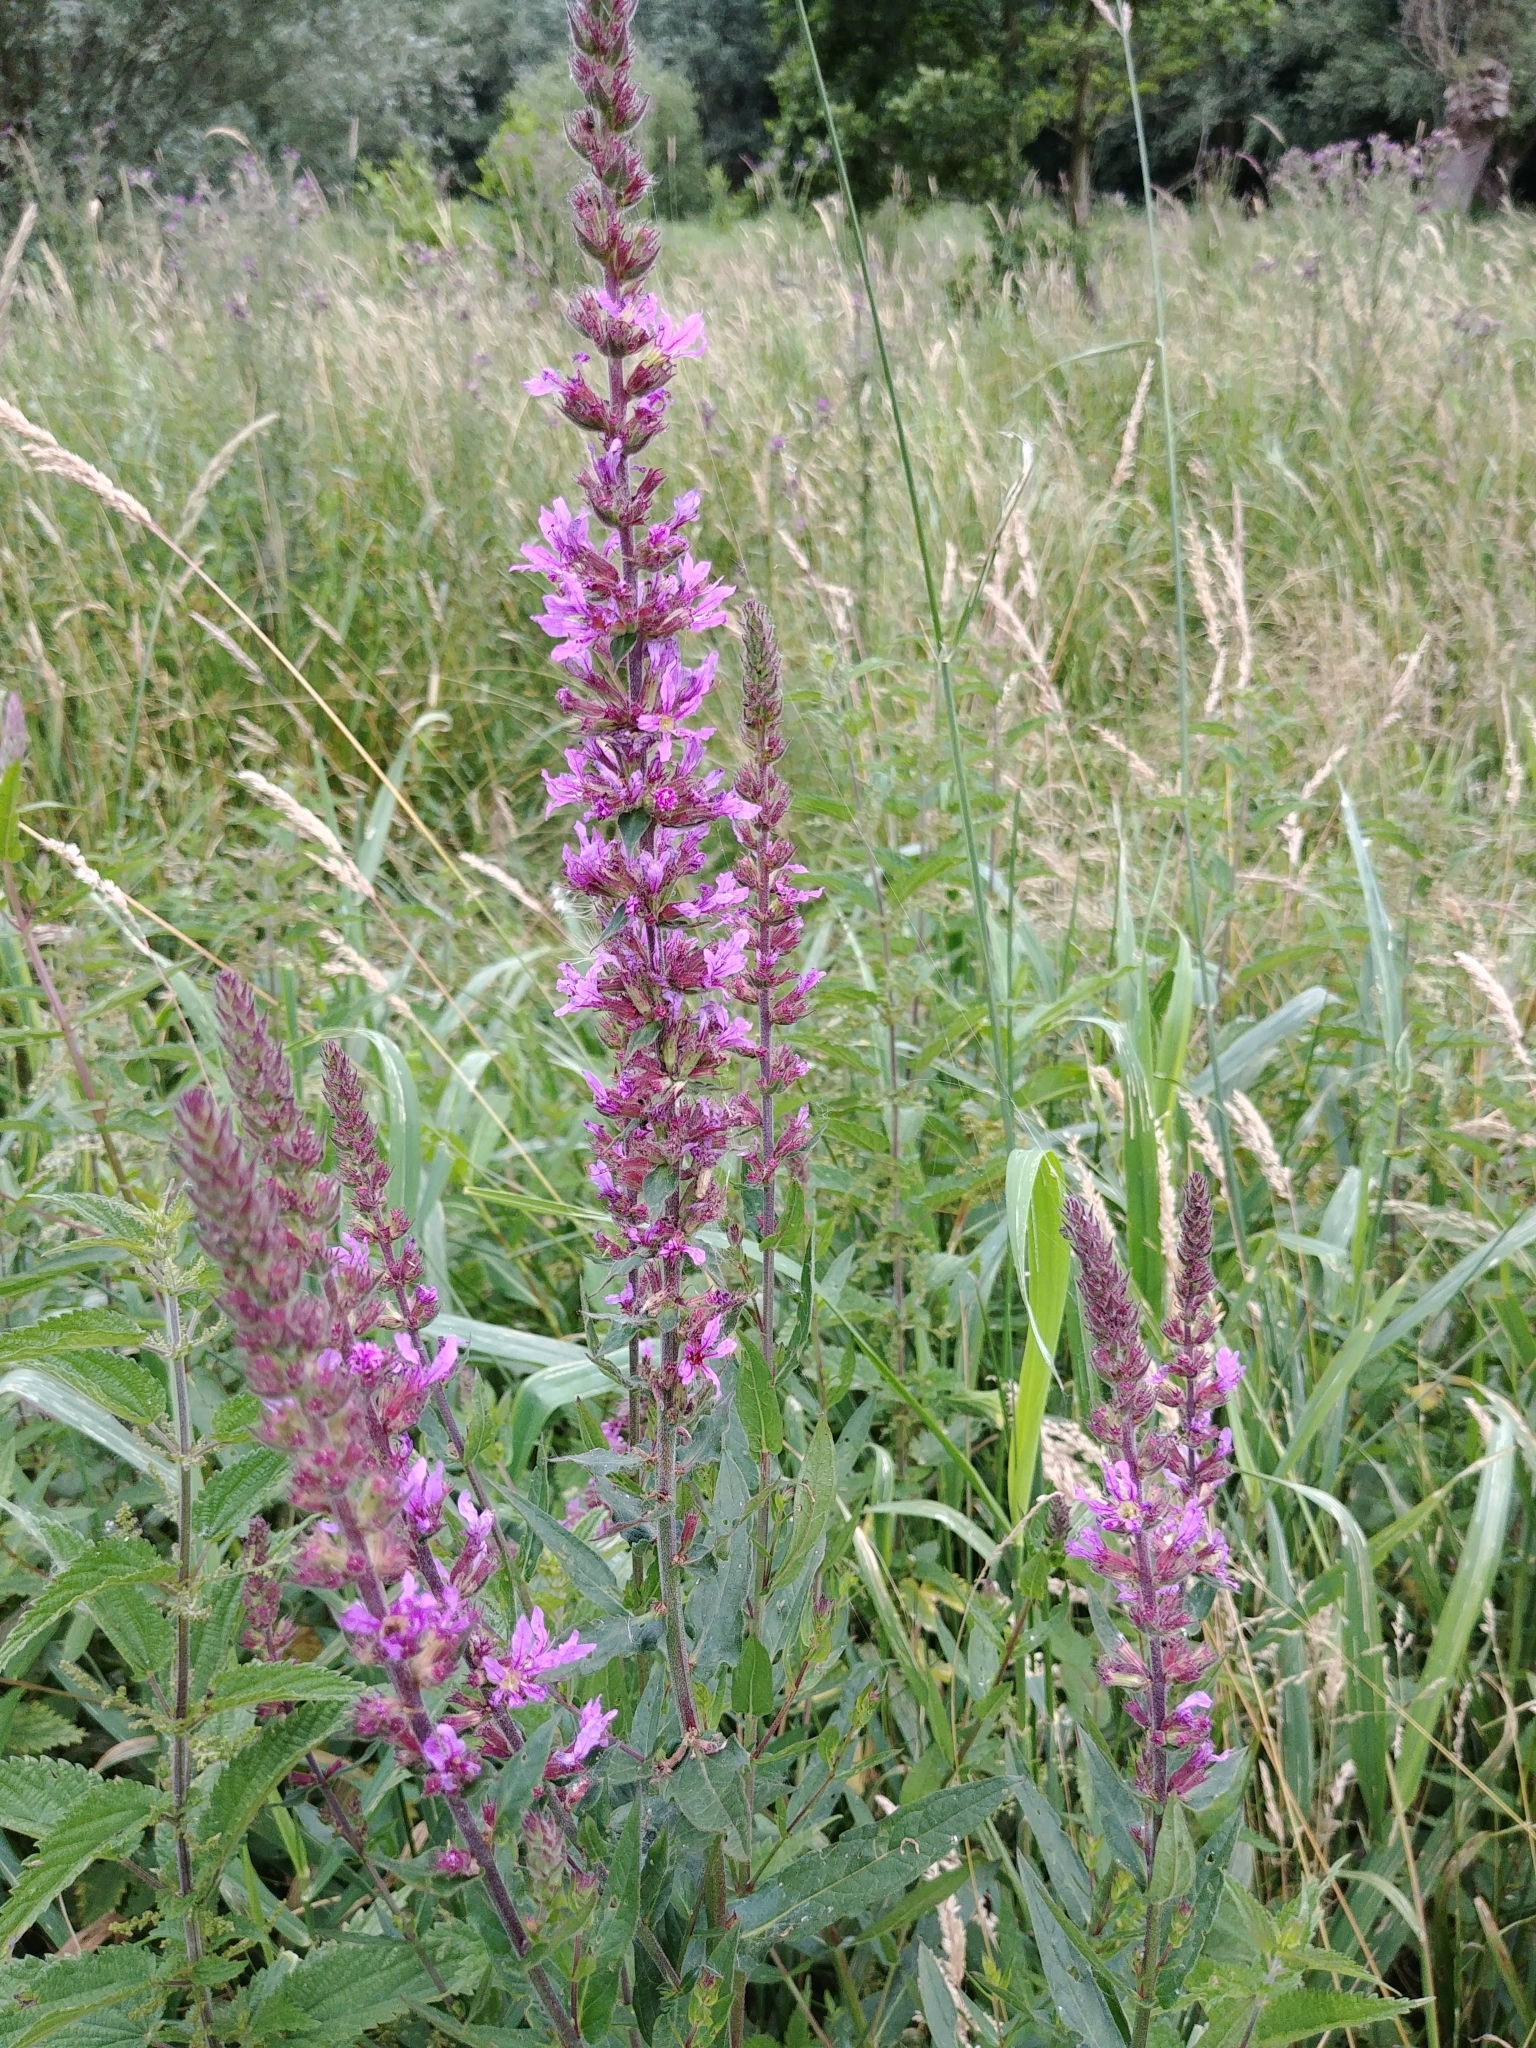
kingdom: Plantae
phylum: Tracheophyta
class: Magnoliopsida
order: Myrtales
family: Lythraceae
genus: Lythrum
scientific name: Lythrum salicaria
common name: Purple loosestrife
